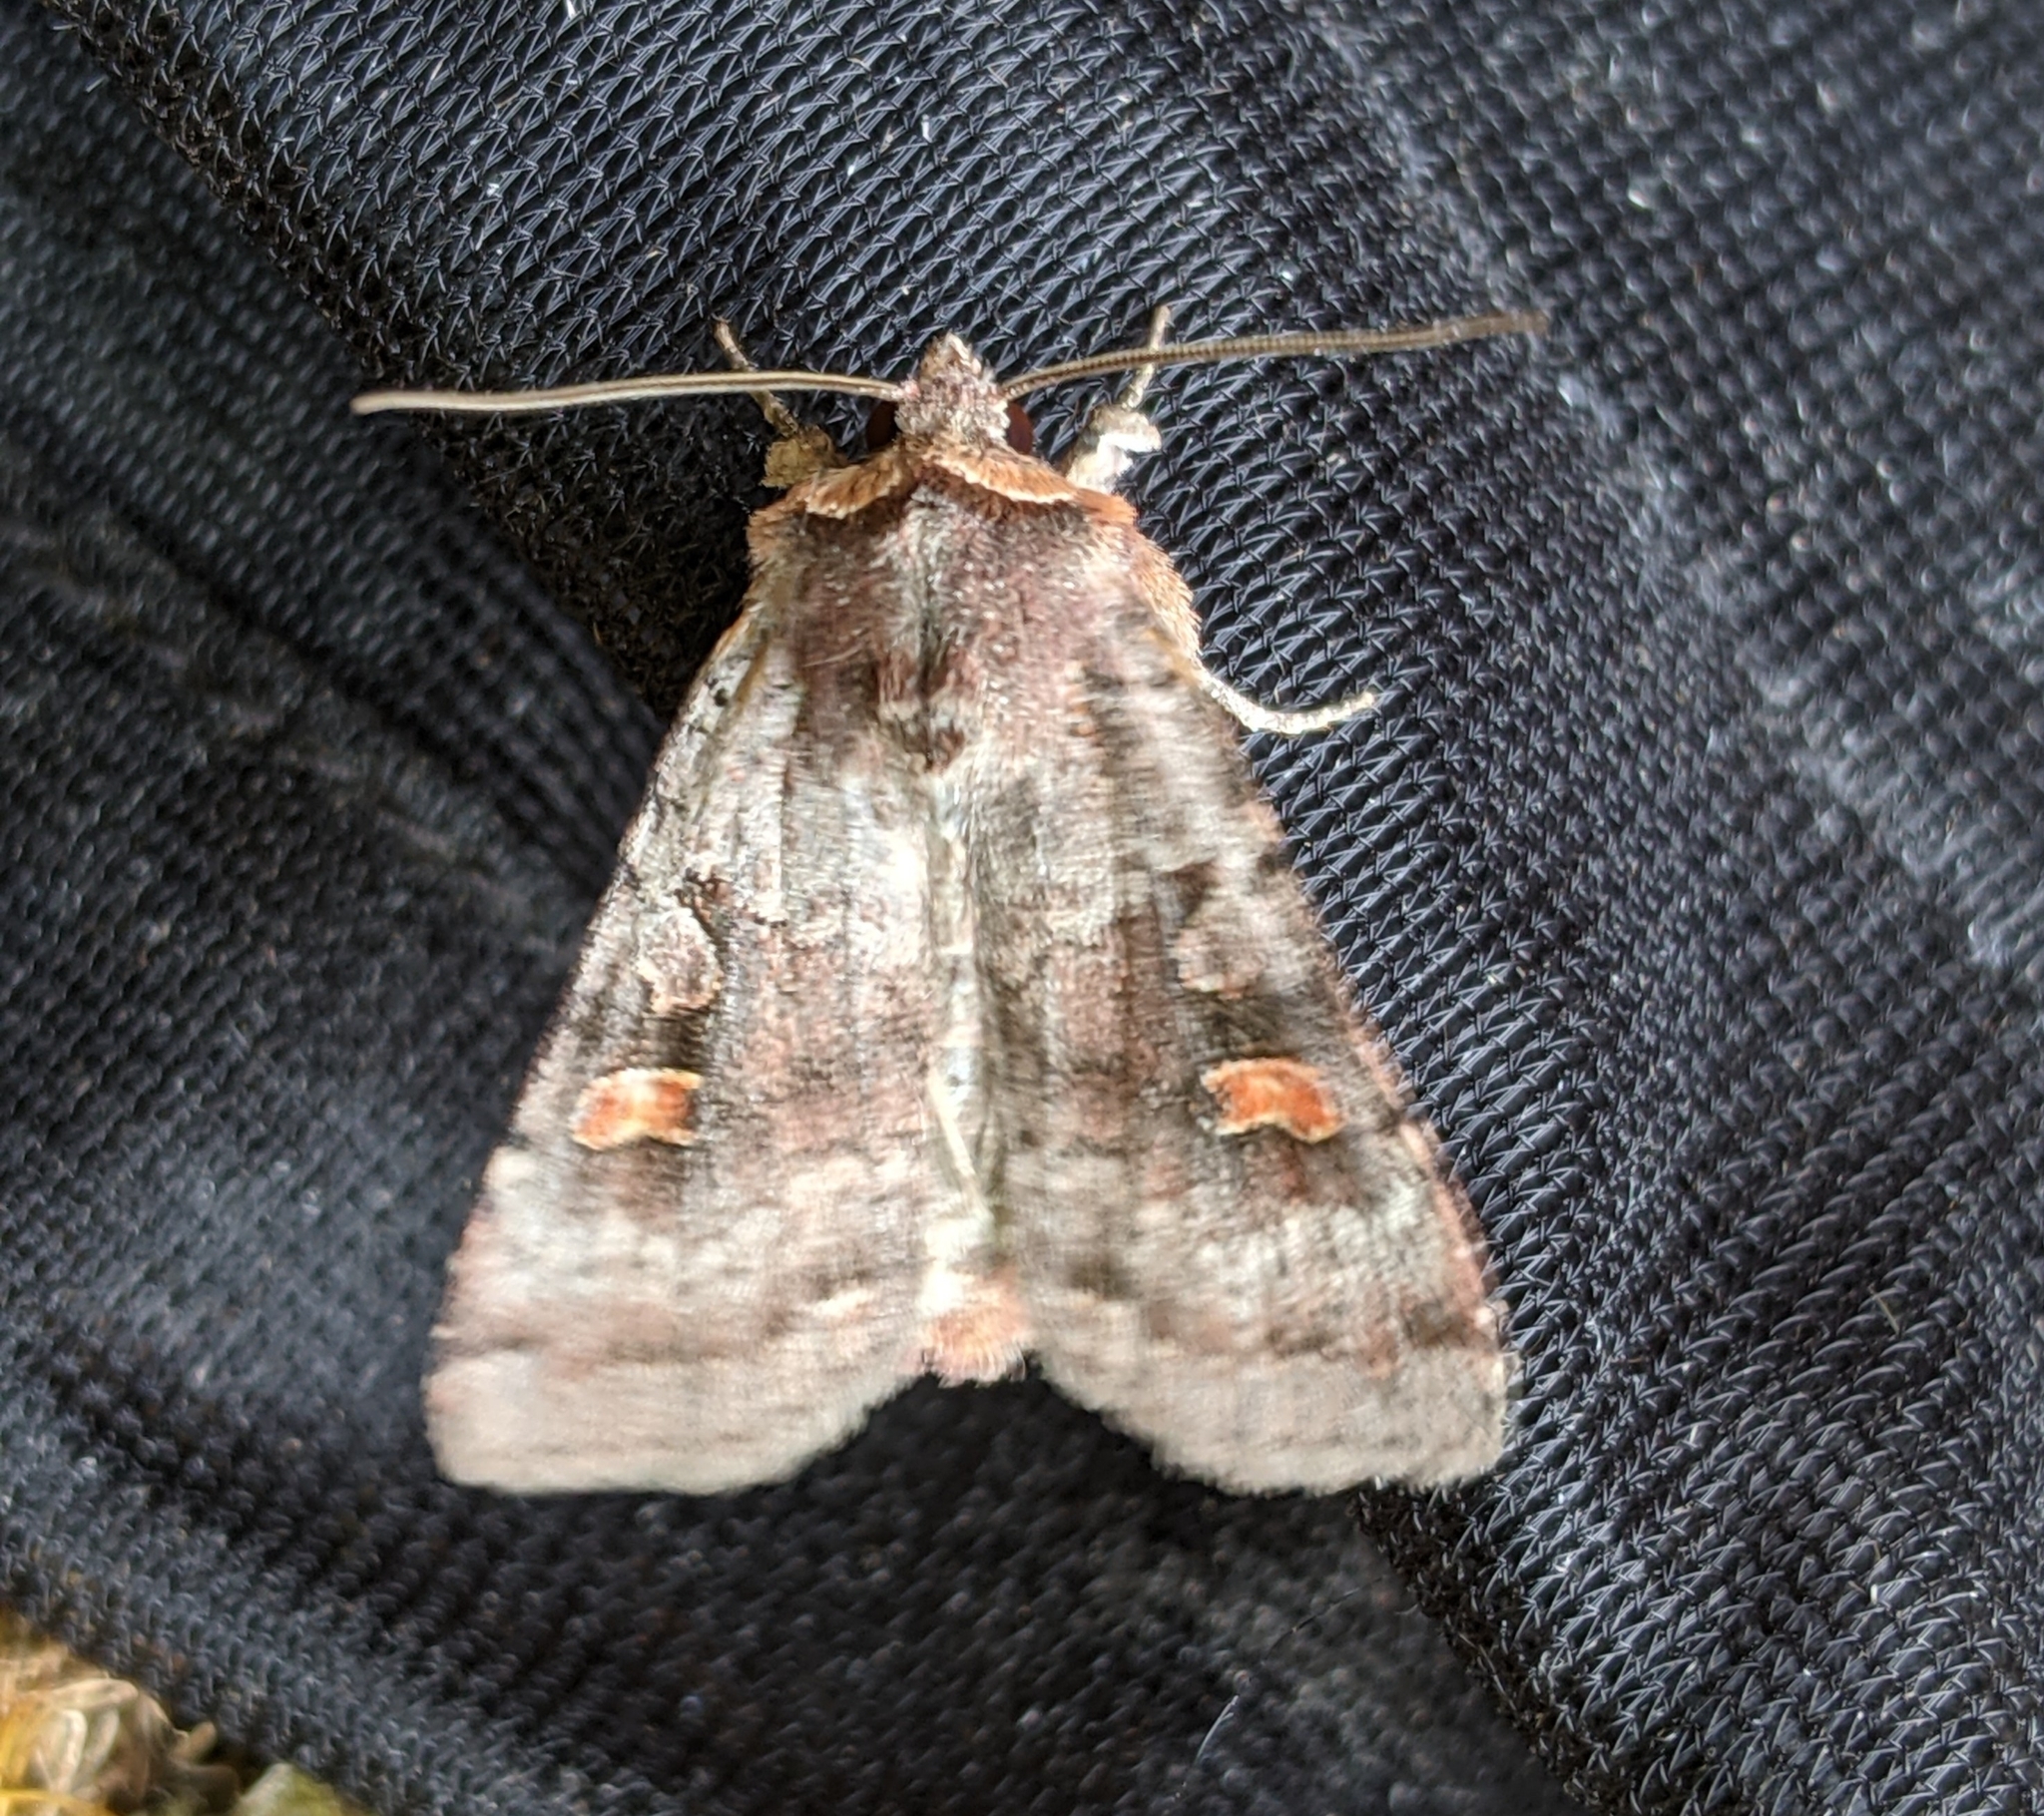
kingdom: Animalia
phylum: Arthropoda
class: Insecta
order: Lepidoptera
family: Noctuidae
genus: Adelphagrotis
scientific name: Adelphagrotis stellaris
